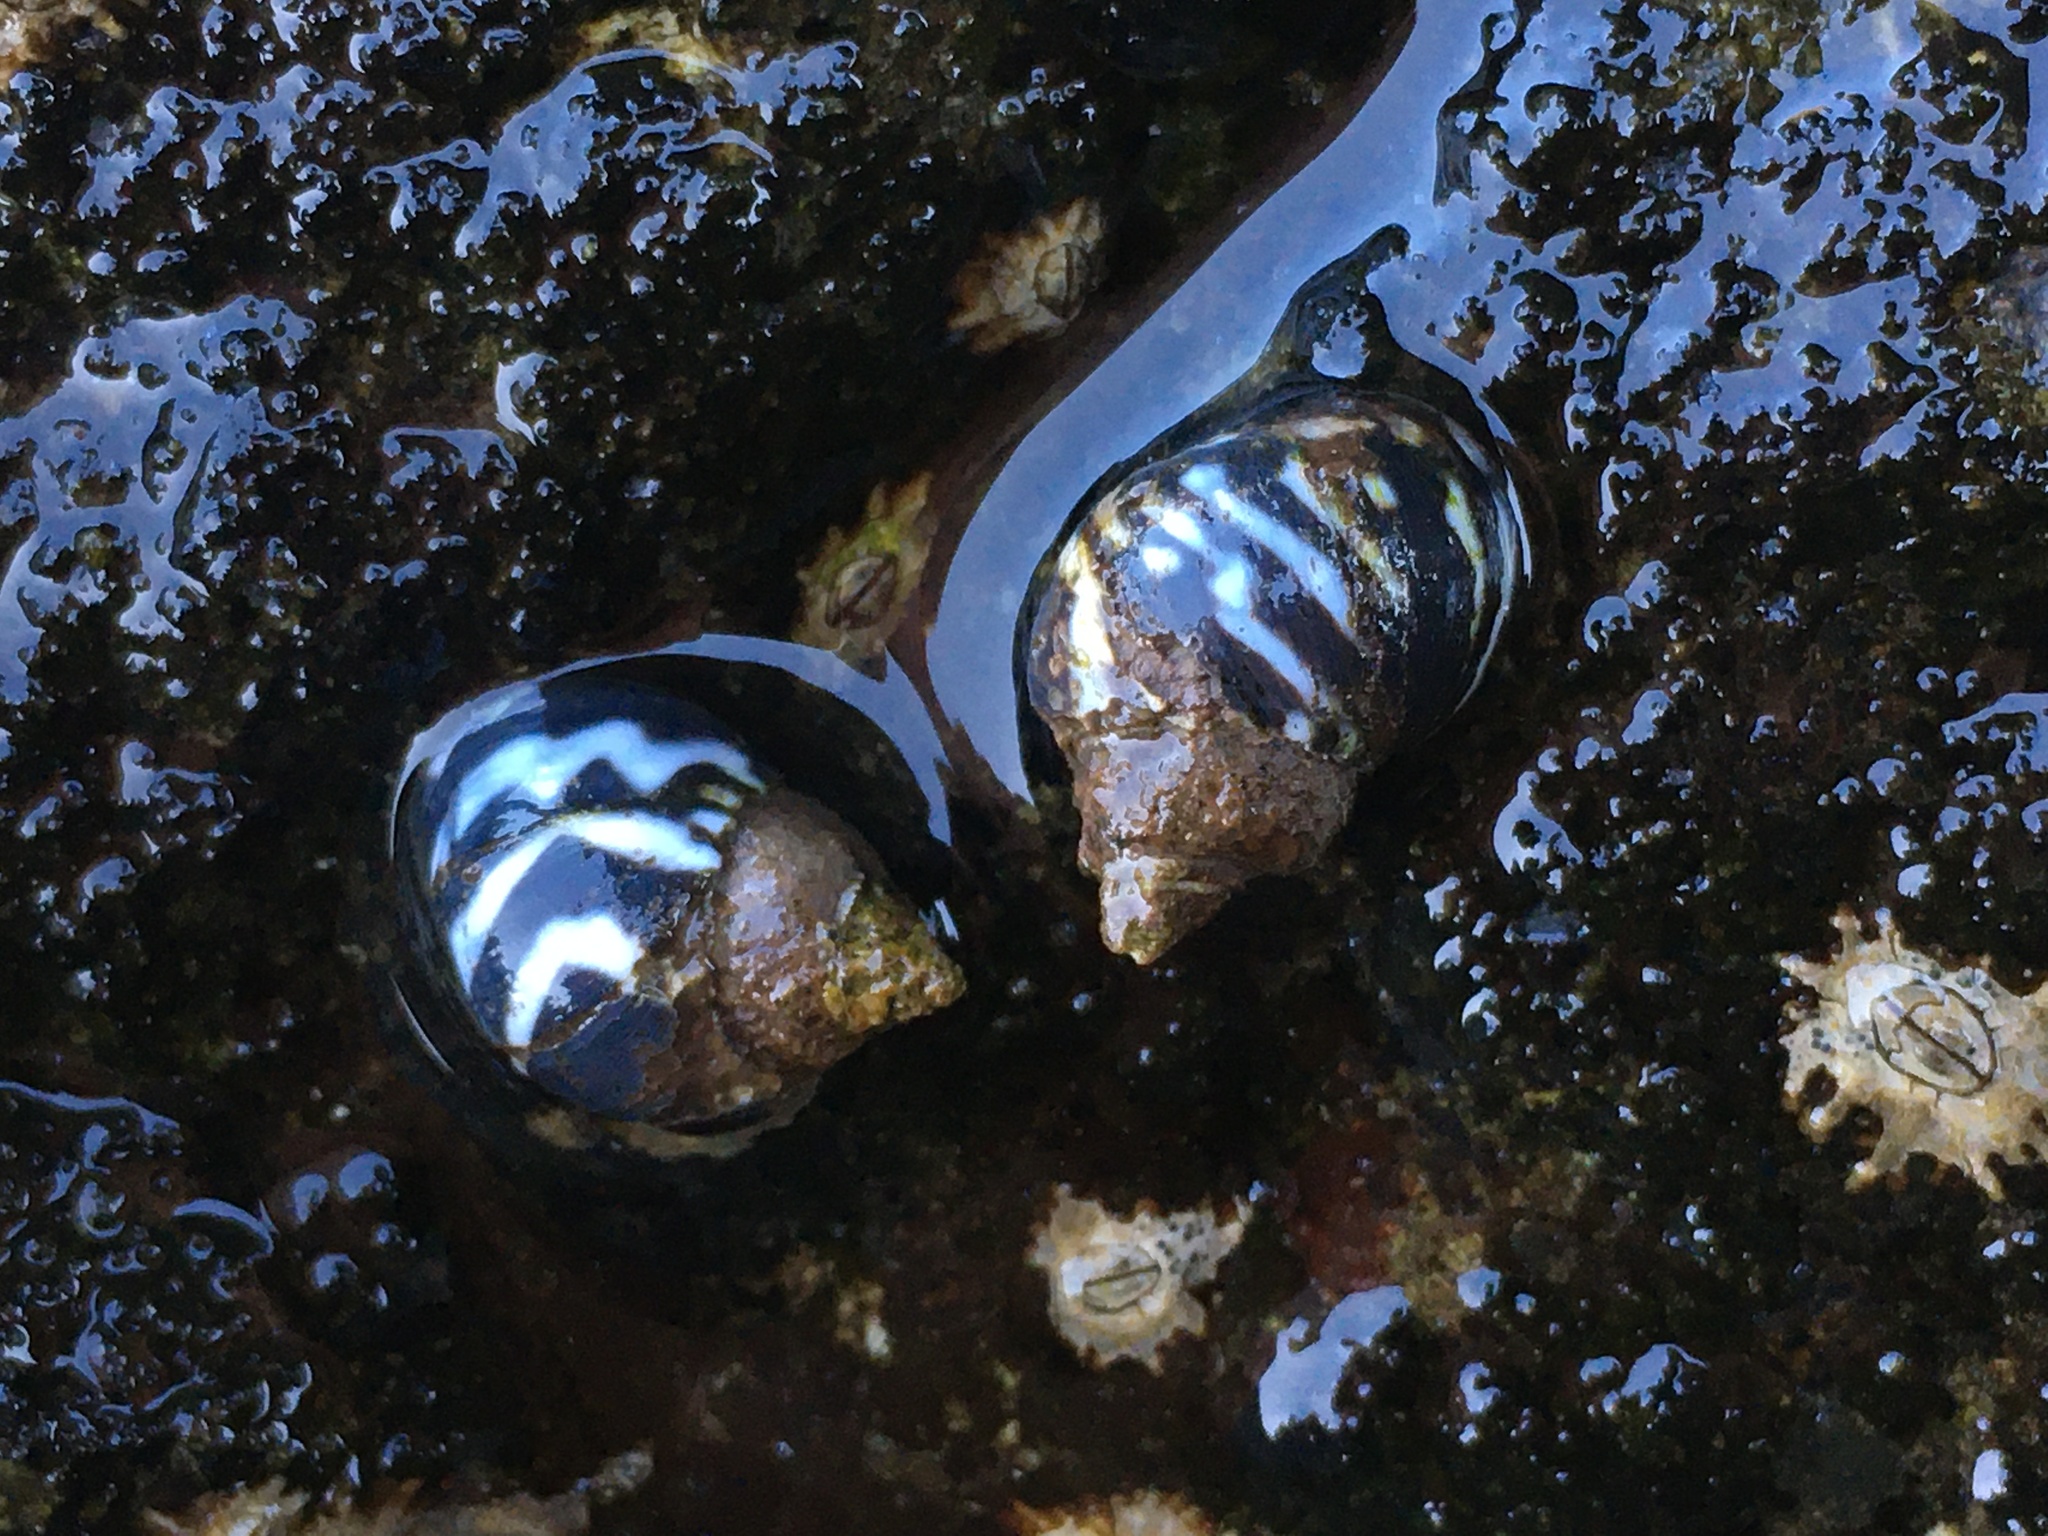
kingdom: Animalia
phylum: Mollusca
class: Gastropoda
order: Littorinimorpha
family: Littorinidae
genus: Echinolittorina
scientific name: Echinolittorina peruviana
